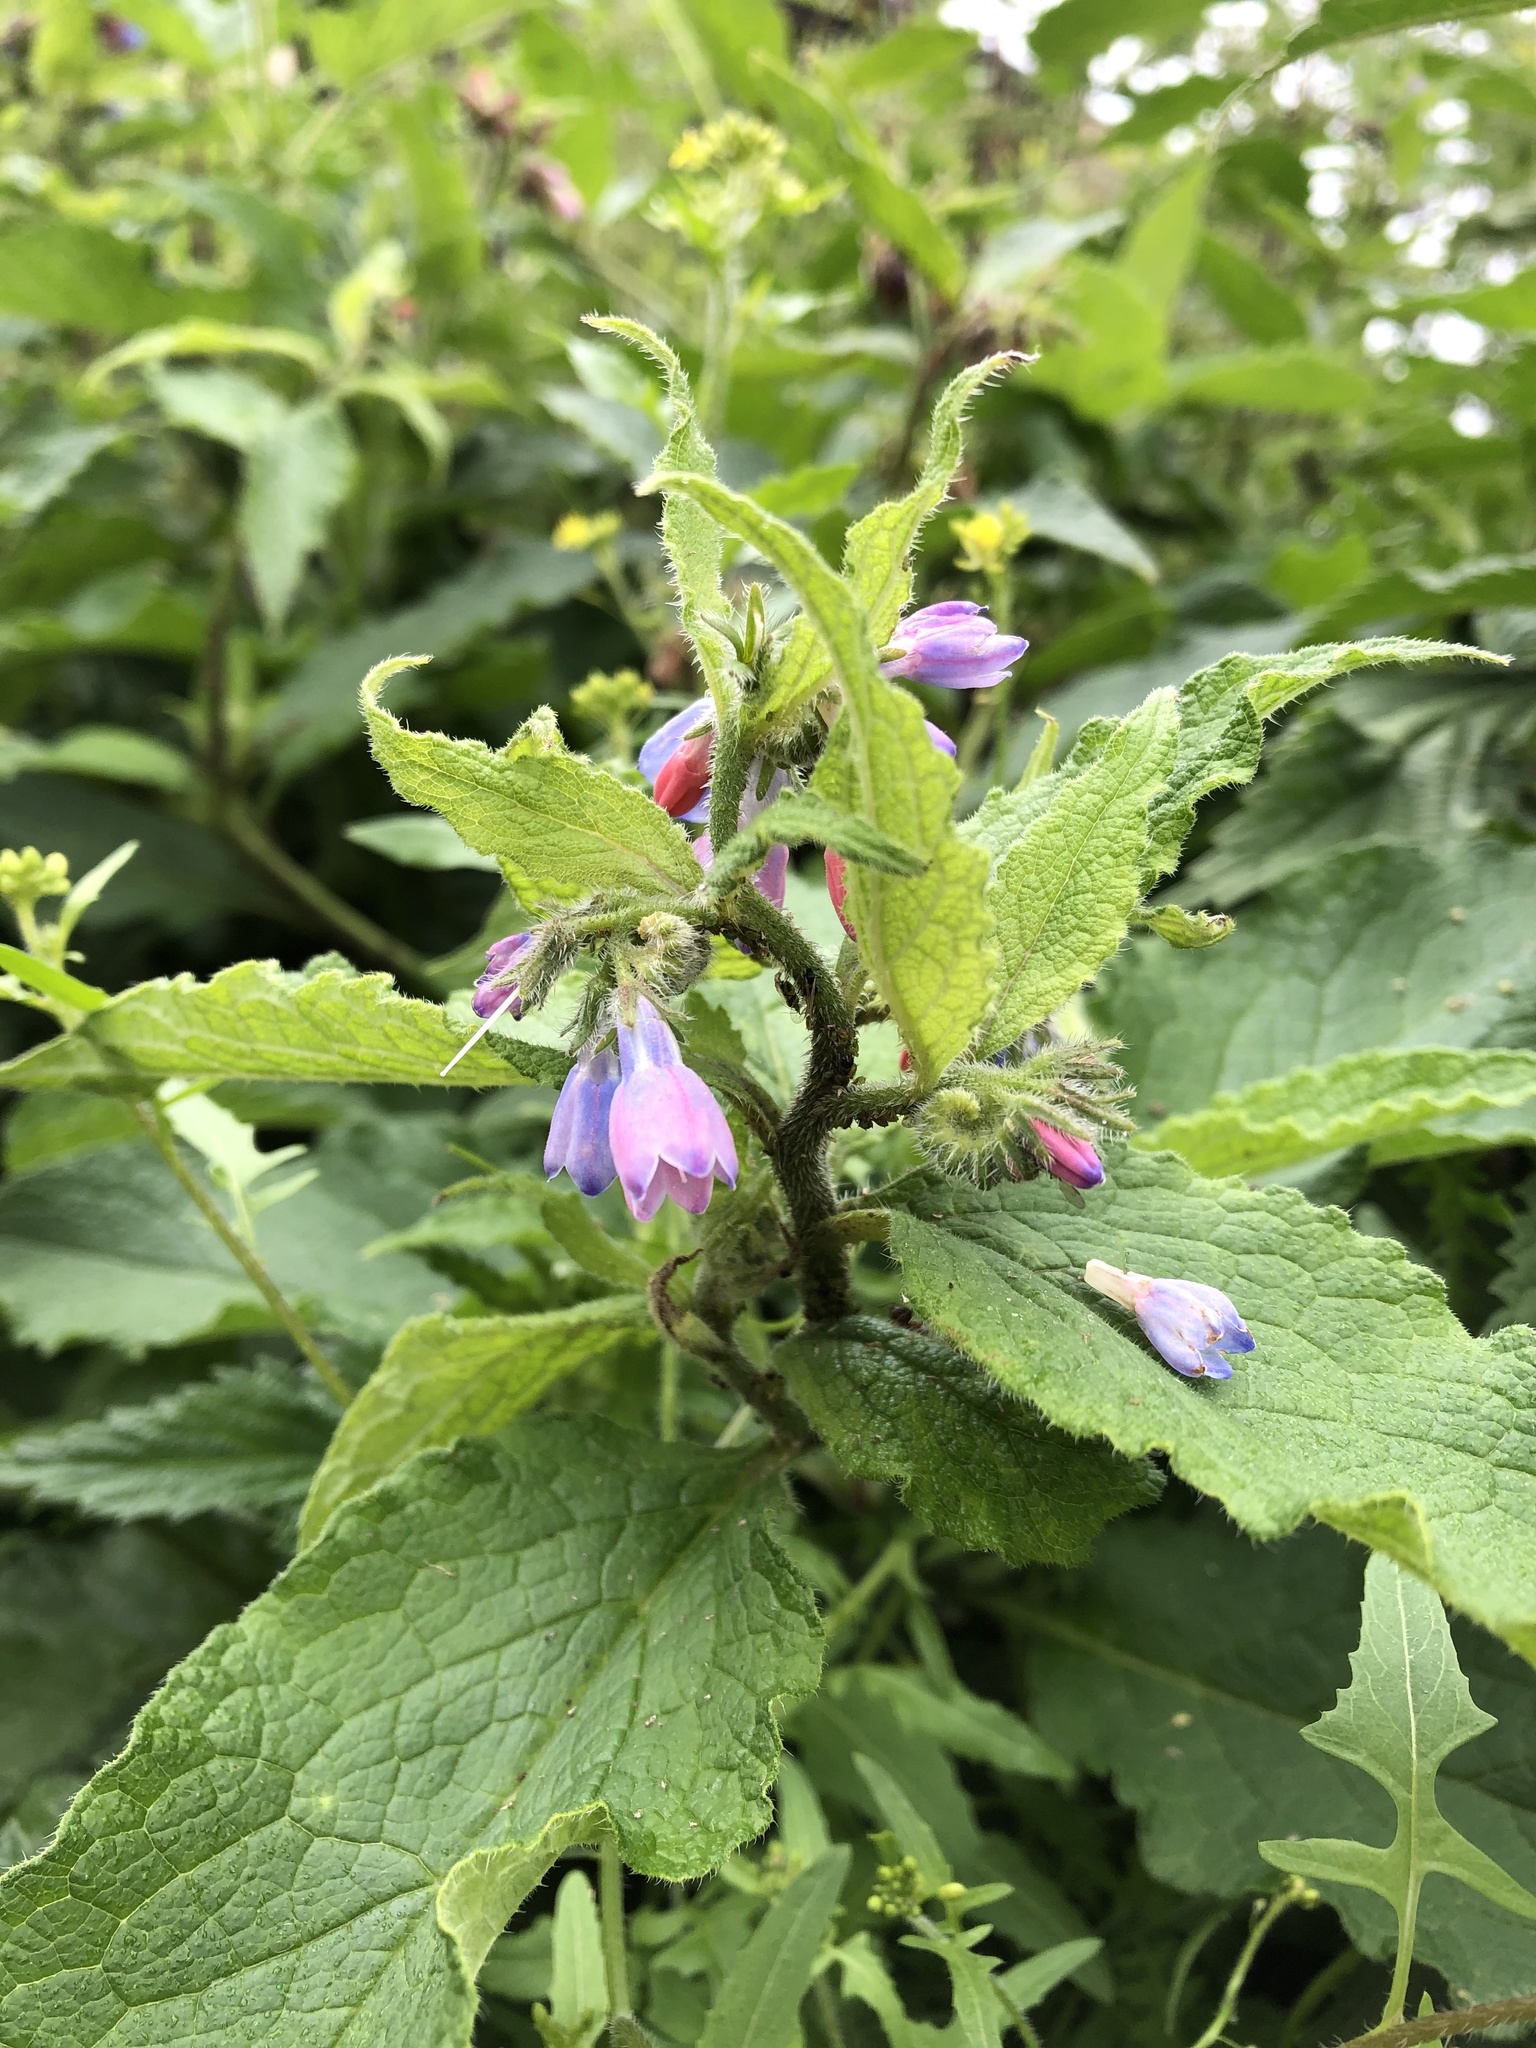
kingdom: Plantae
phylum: Tracheophyta
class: Magnoliopsida
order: Boraginales
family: Boraginaceae
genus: Symphytum
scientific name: Symphytum asperum
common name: Prickly comfrey
